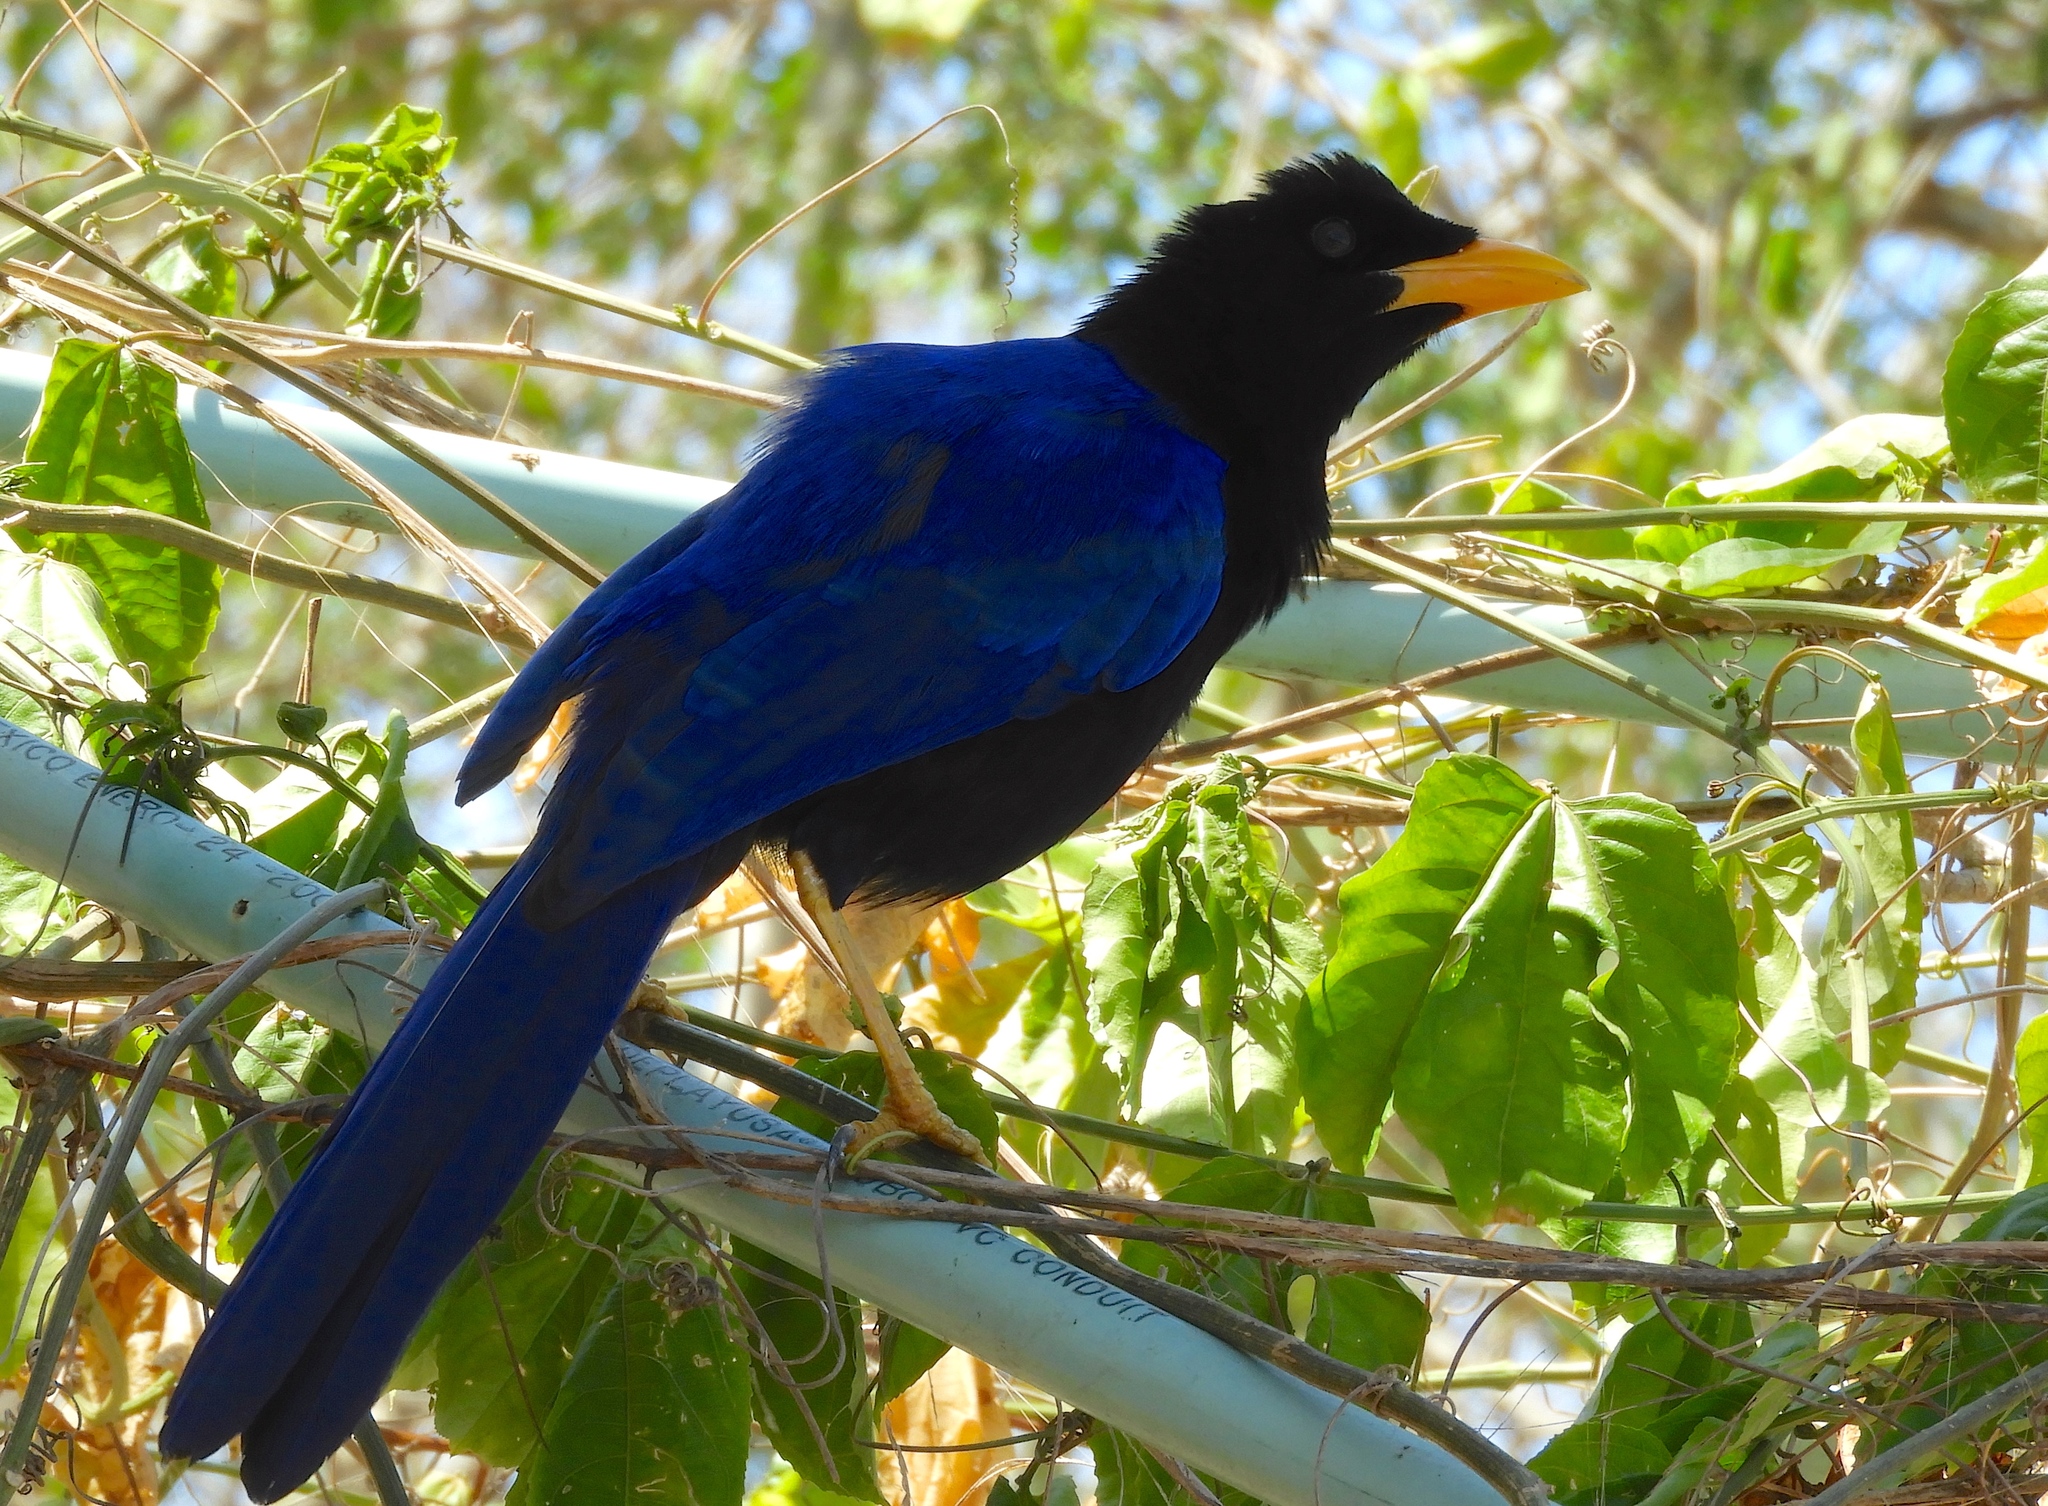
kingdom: Animalia
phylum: Chordata
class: Aves
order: Passeriformes
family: Corvidae
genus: Cyanocorax
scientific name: Cyanocorax beecheii
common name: Purplish-backed jay
